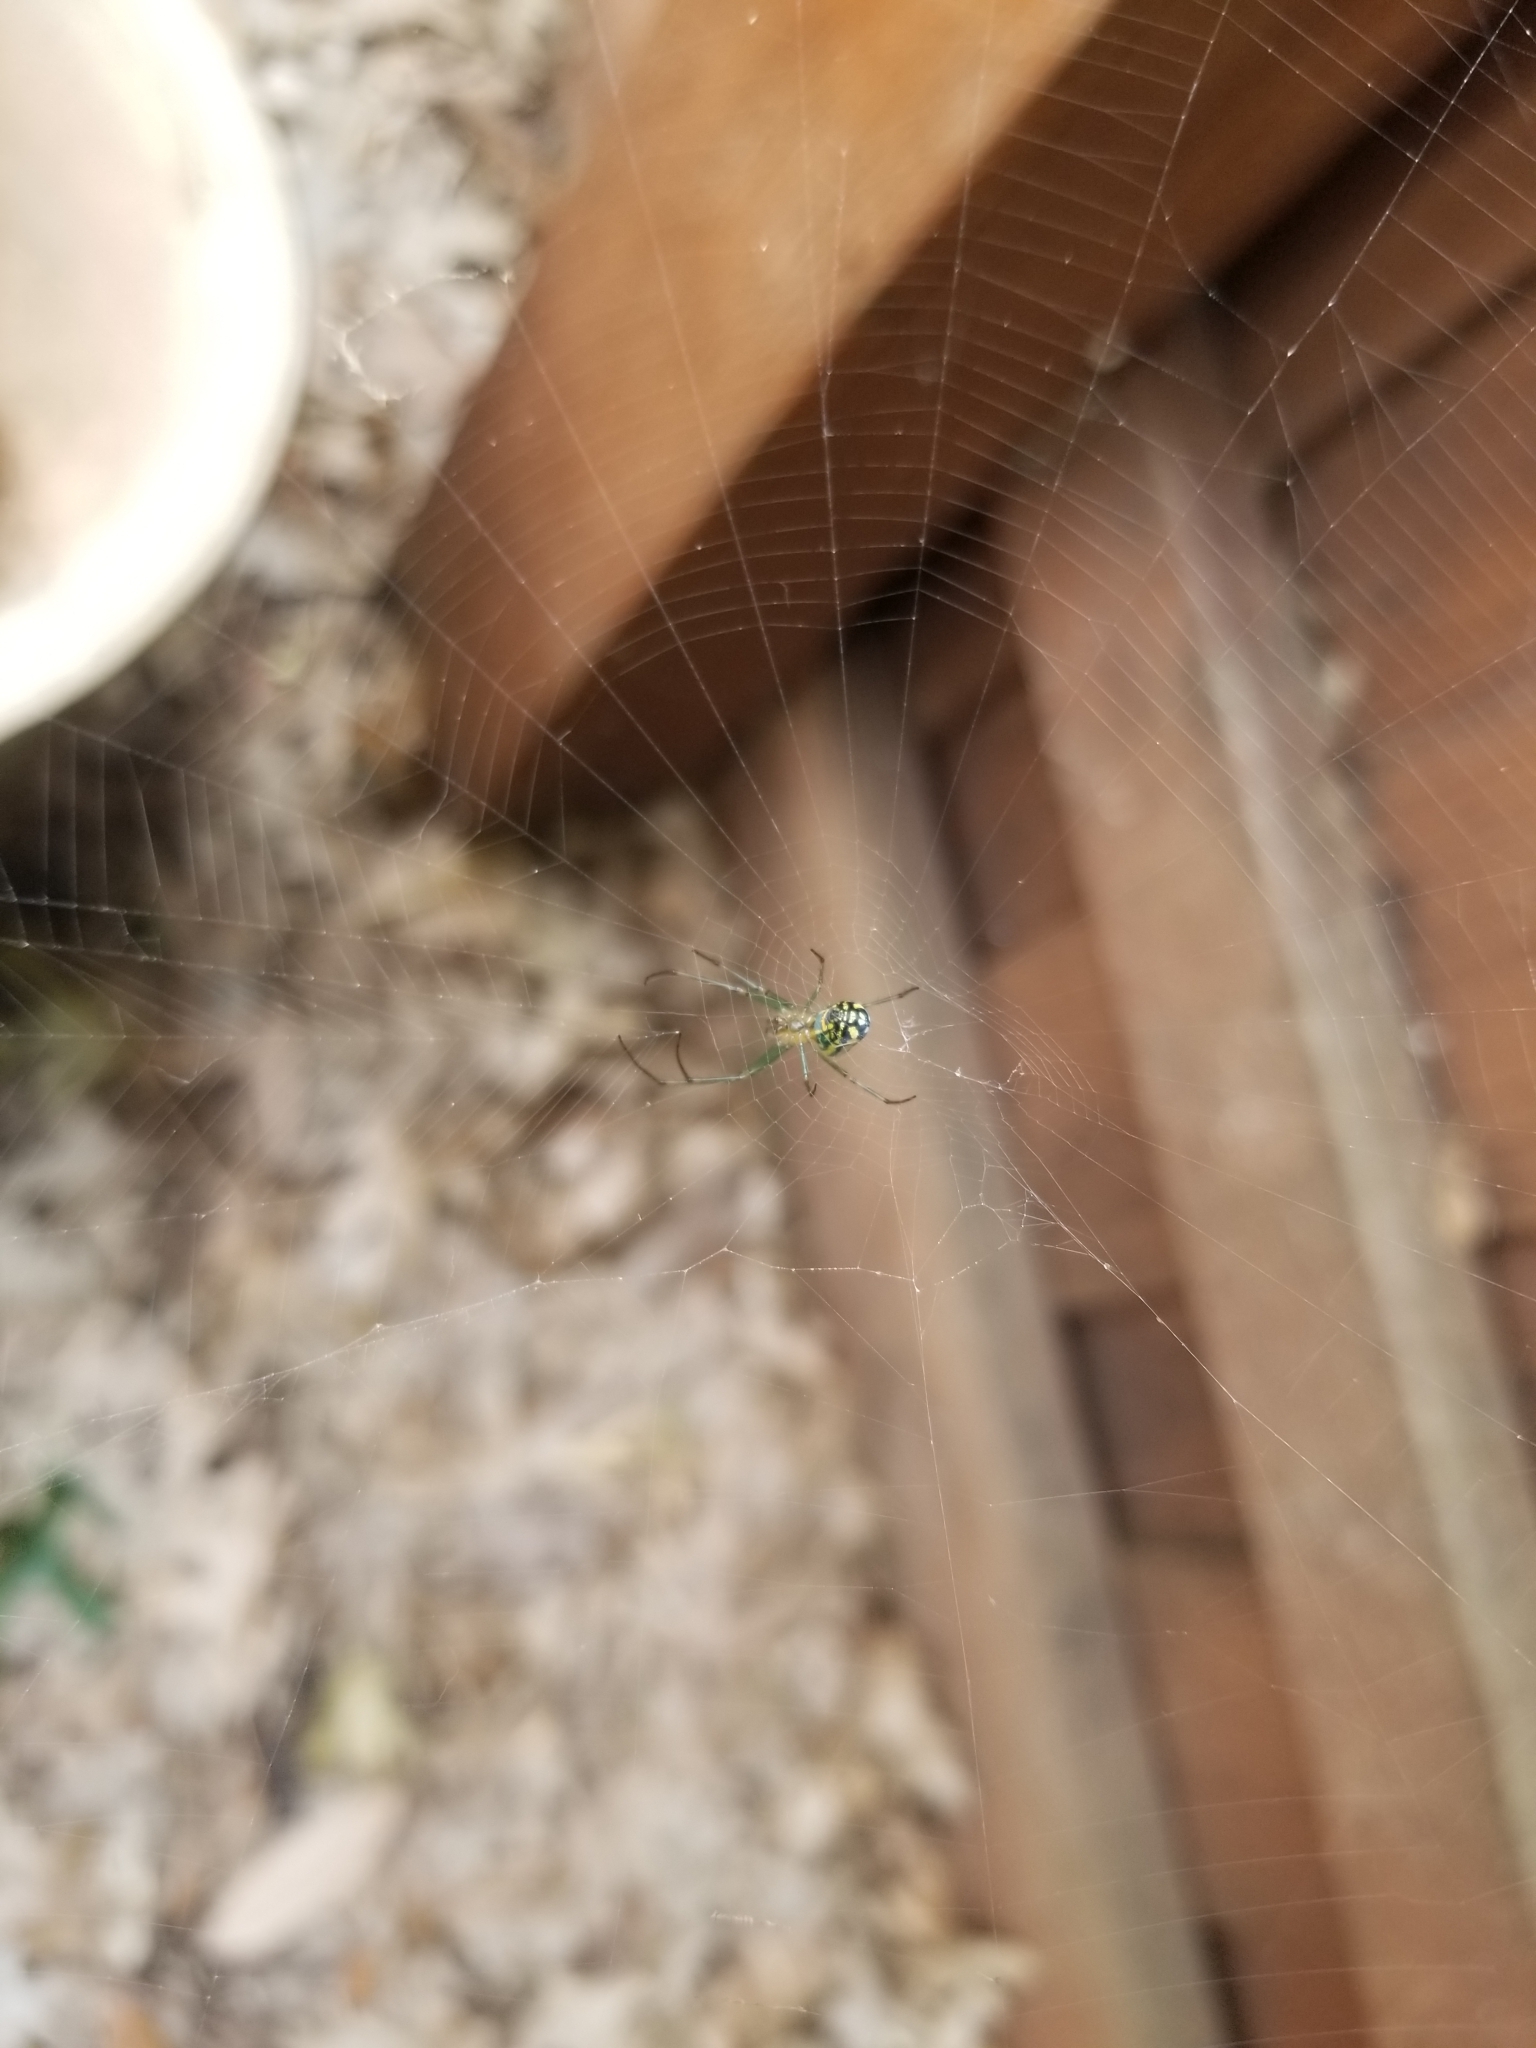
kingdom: Animalia
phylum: Arthropoda
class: Arachnida
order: Araneae
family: Tetragnathidae
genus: Leucauge
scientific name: Leucauge venusta
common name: Longjawed orb weavers
